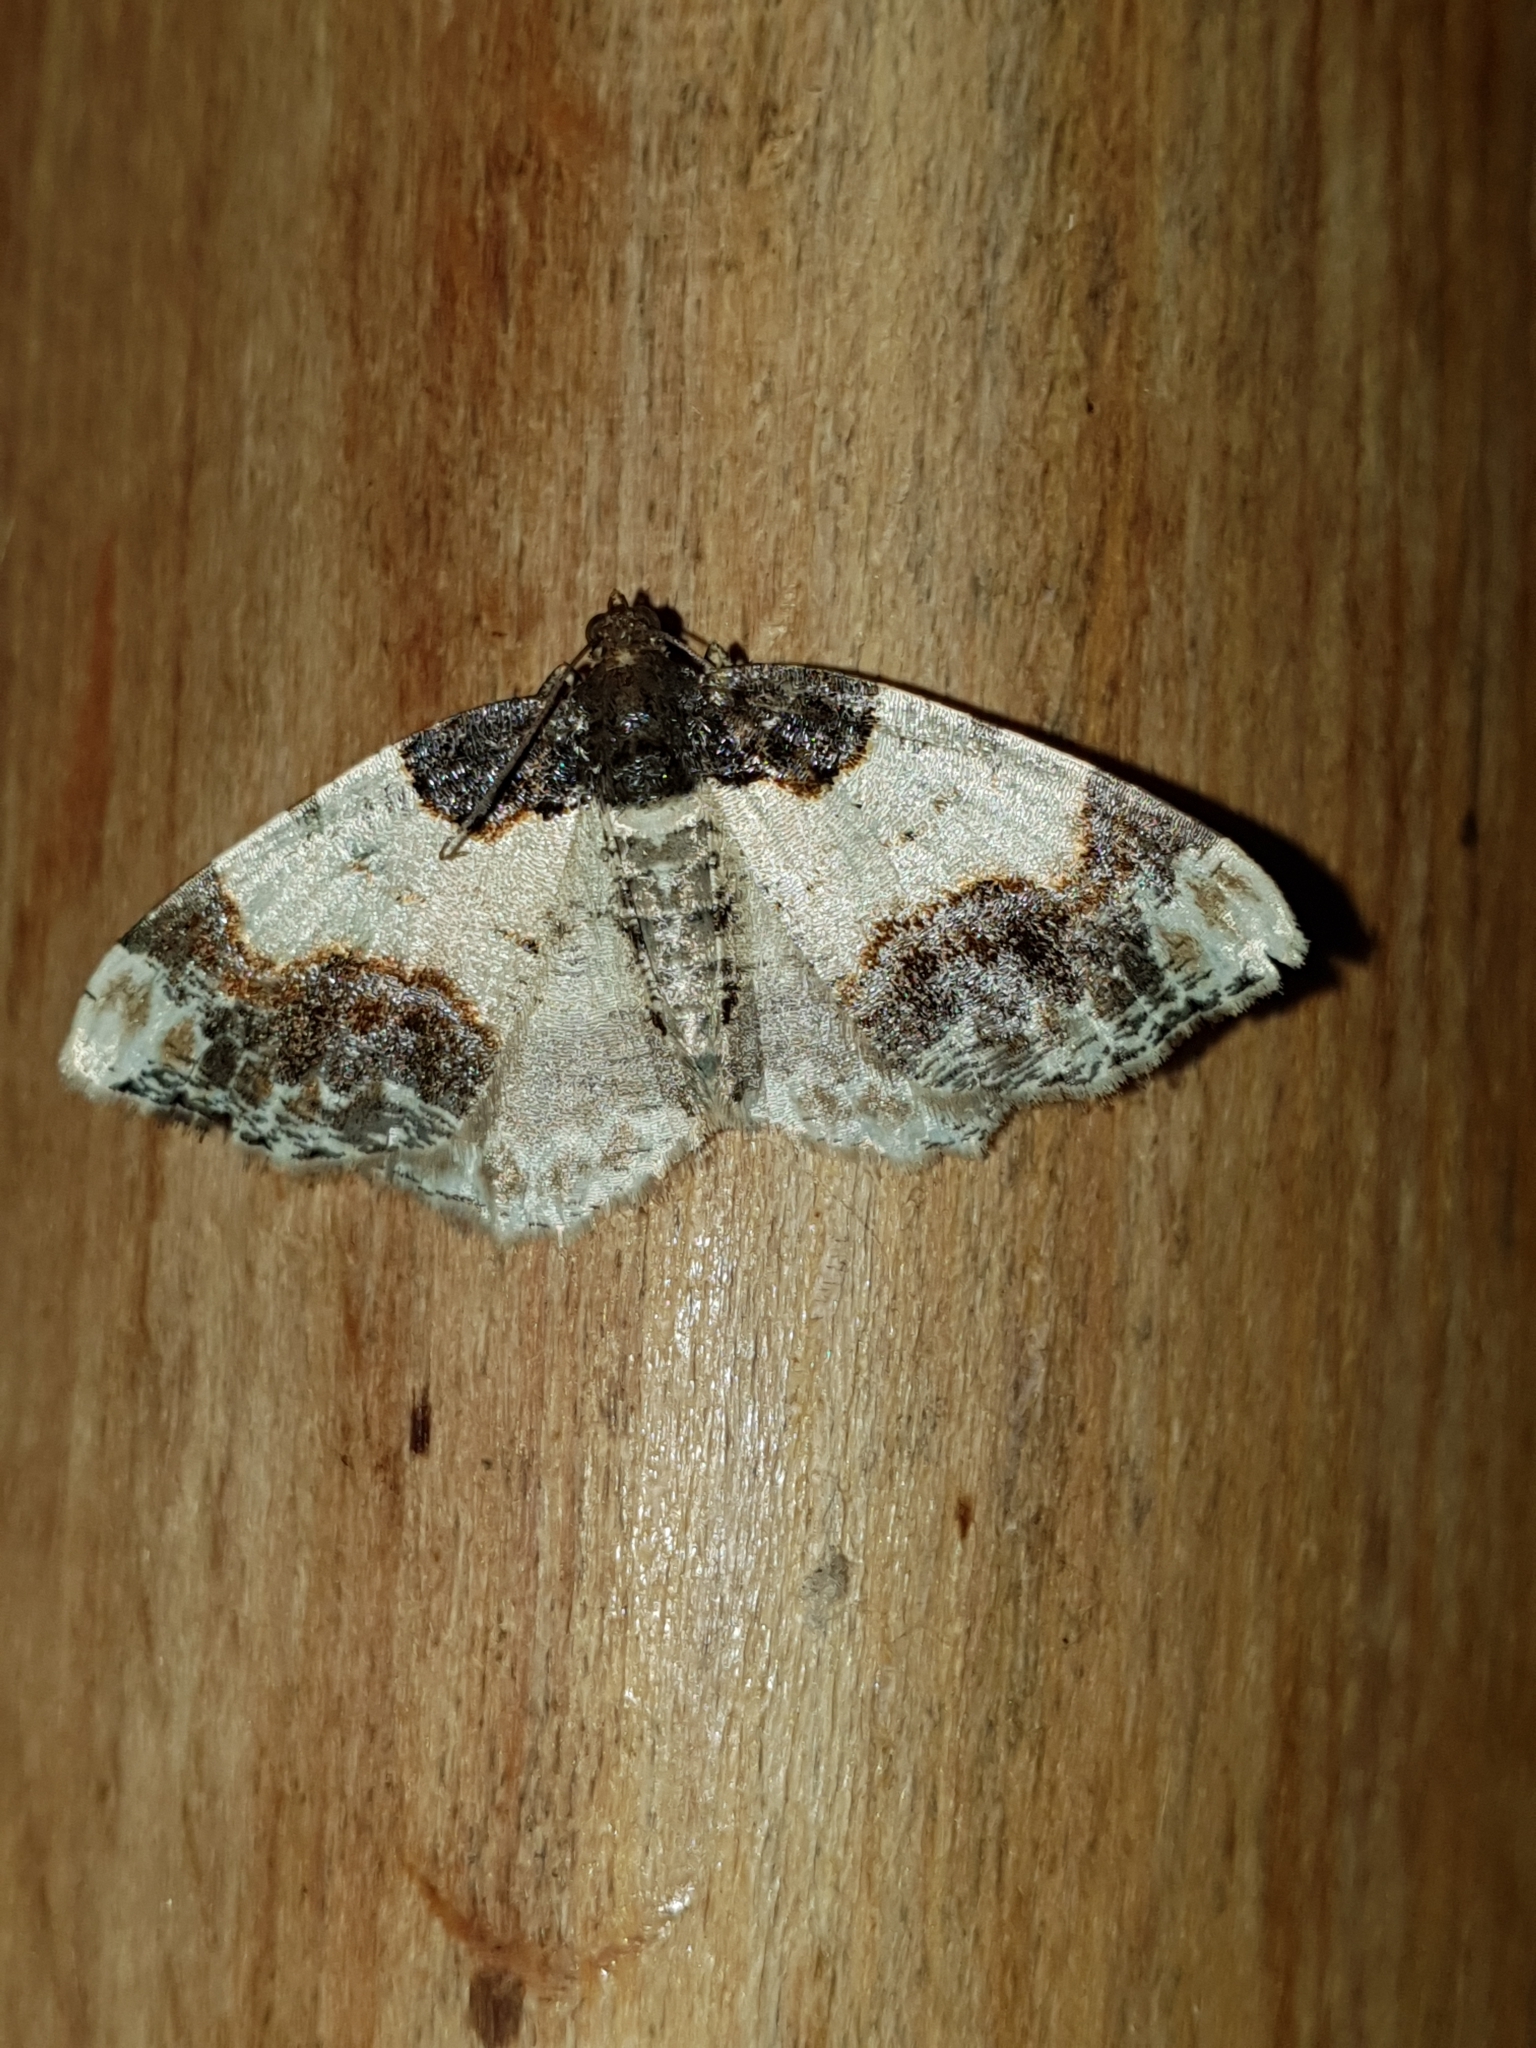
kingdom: Animalia
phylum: Arthropoda
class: Insecta
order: Lepidoptera
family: Geometridae
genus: Ligdia
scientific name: Ligdia adustata
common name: Scorched carpet
